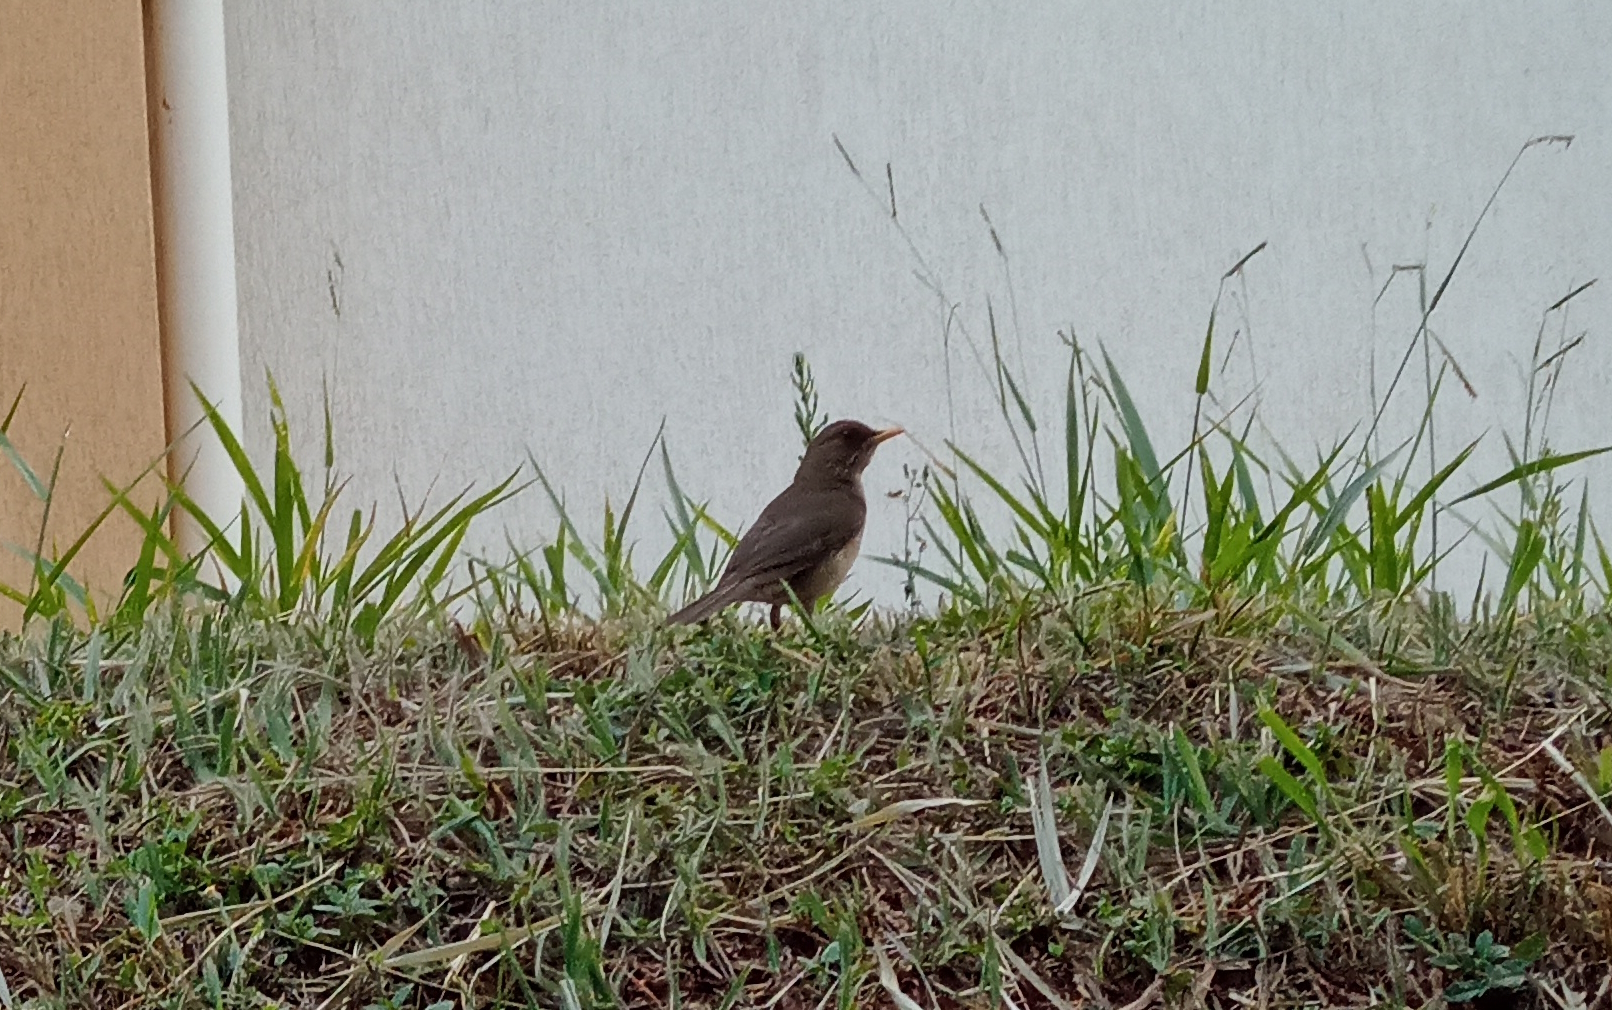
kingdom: Animalia
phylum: Chordata
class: Aves
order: Passeriformes
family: Turdidae
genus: Turdus
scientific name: Turdus amaurochalinus
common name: Creamy-bellied thrush
